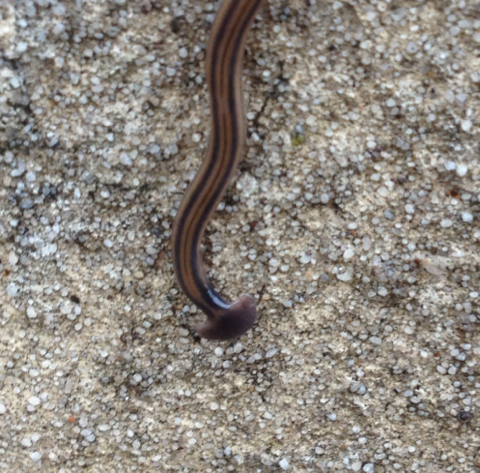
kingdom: Animalia
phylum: Platyhelminthes
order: Tricladida
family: Geoplanidae
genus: Bipalium
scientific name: Bipalium kewense
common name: Hammerhead flatworm
